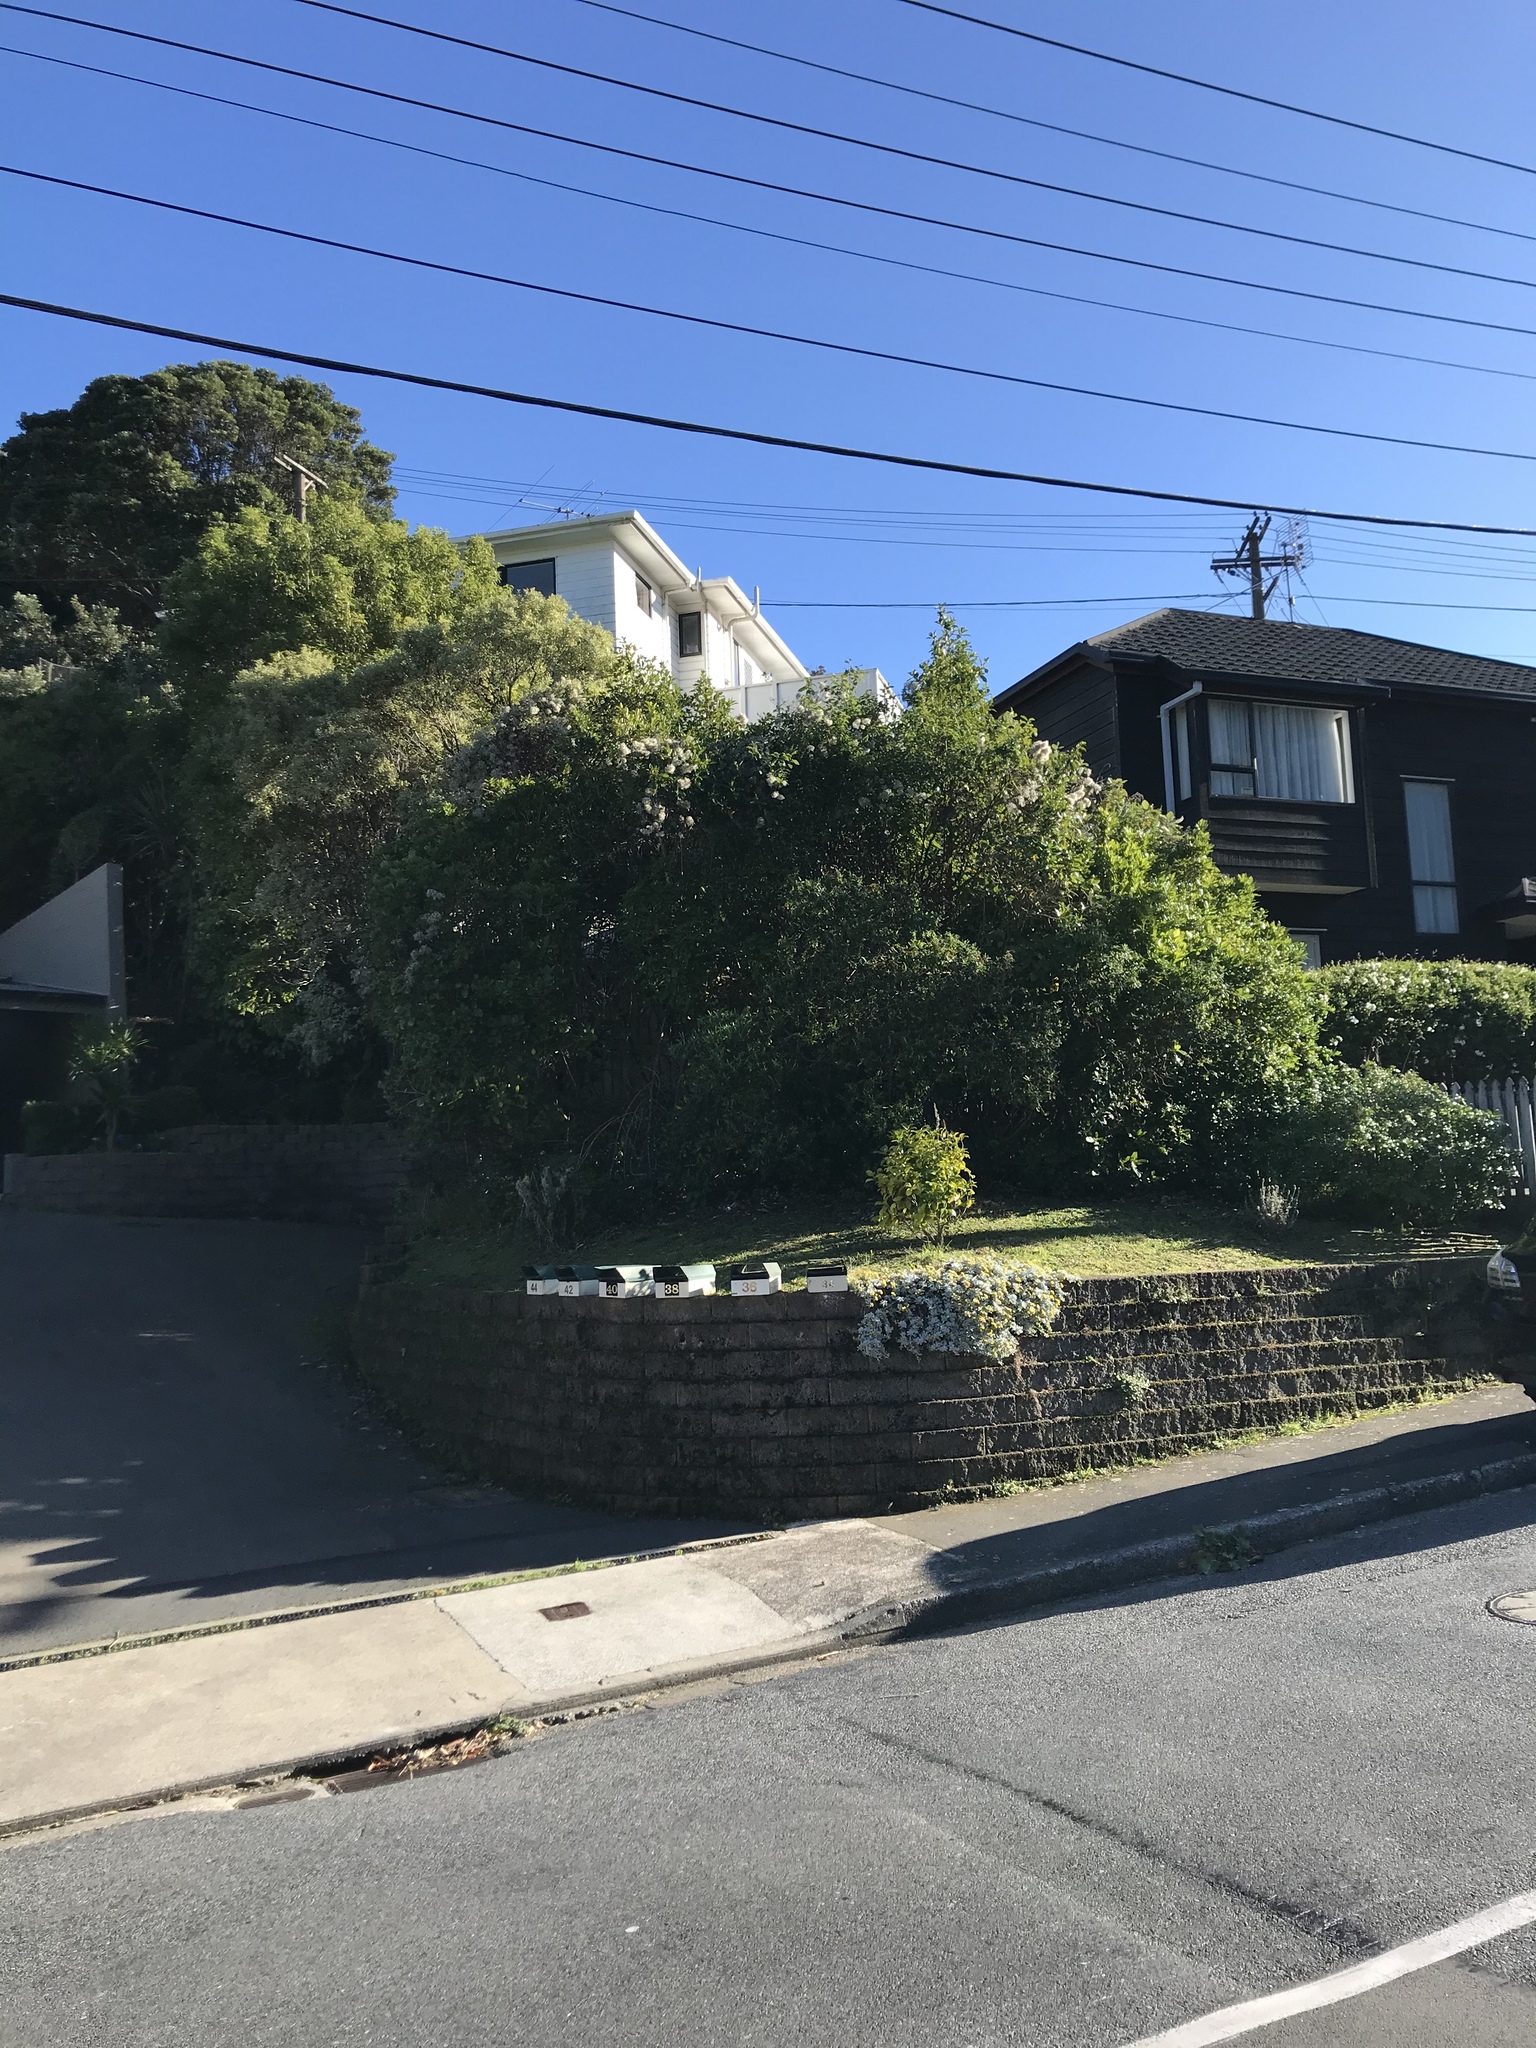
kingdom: Plantae
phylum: Tracheophyta
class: Magnoliopsida
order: Ranunculales
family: Ranunculaceae
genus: Clematis
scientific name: Clematis vitalba
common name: Evergreen clematis
